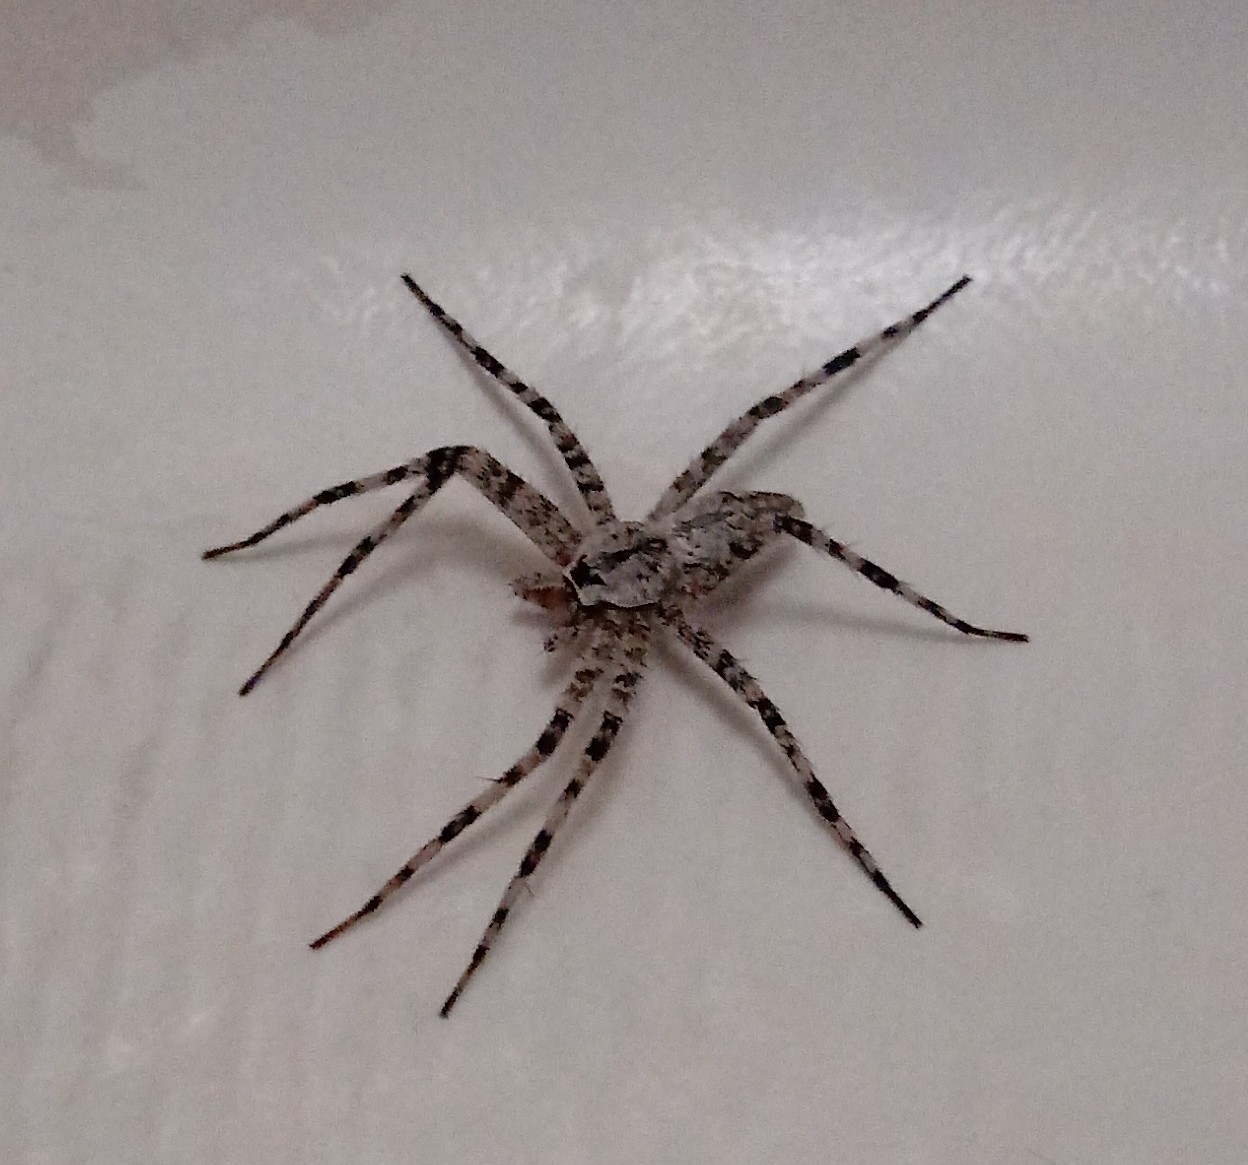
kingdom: Animalia
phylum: Arthropoda
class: Arachnida
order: Araneae
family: Pisauridae
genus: Dolomedes
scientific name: Dolomedes albineus
